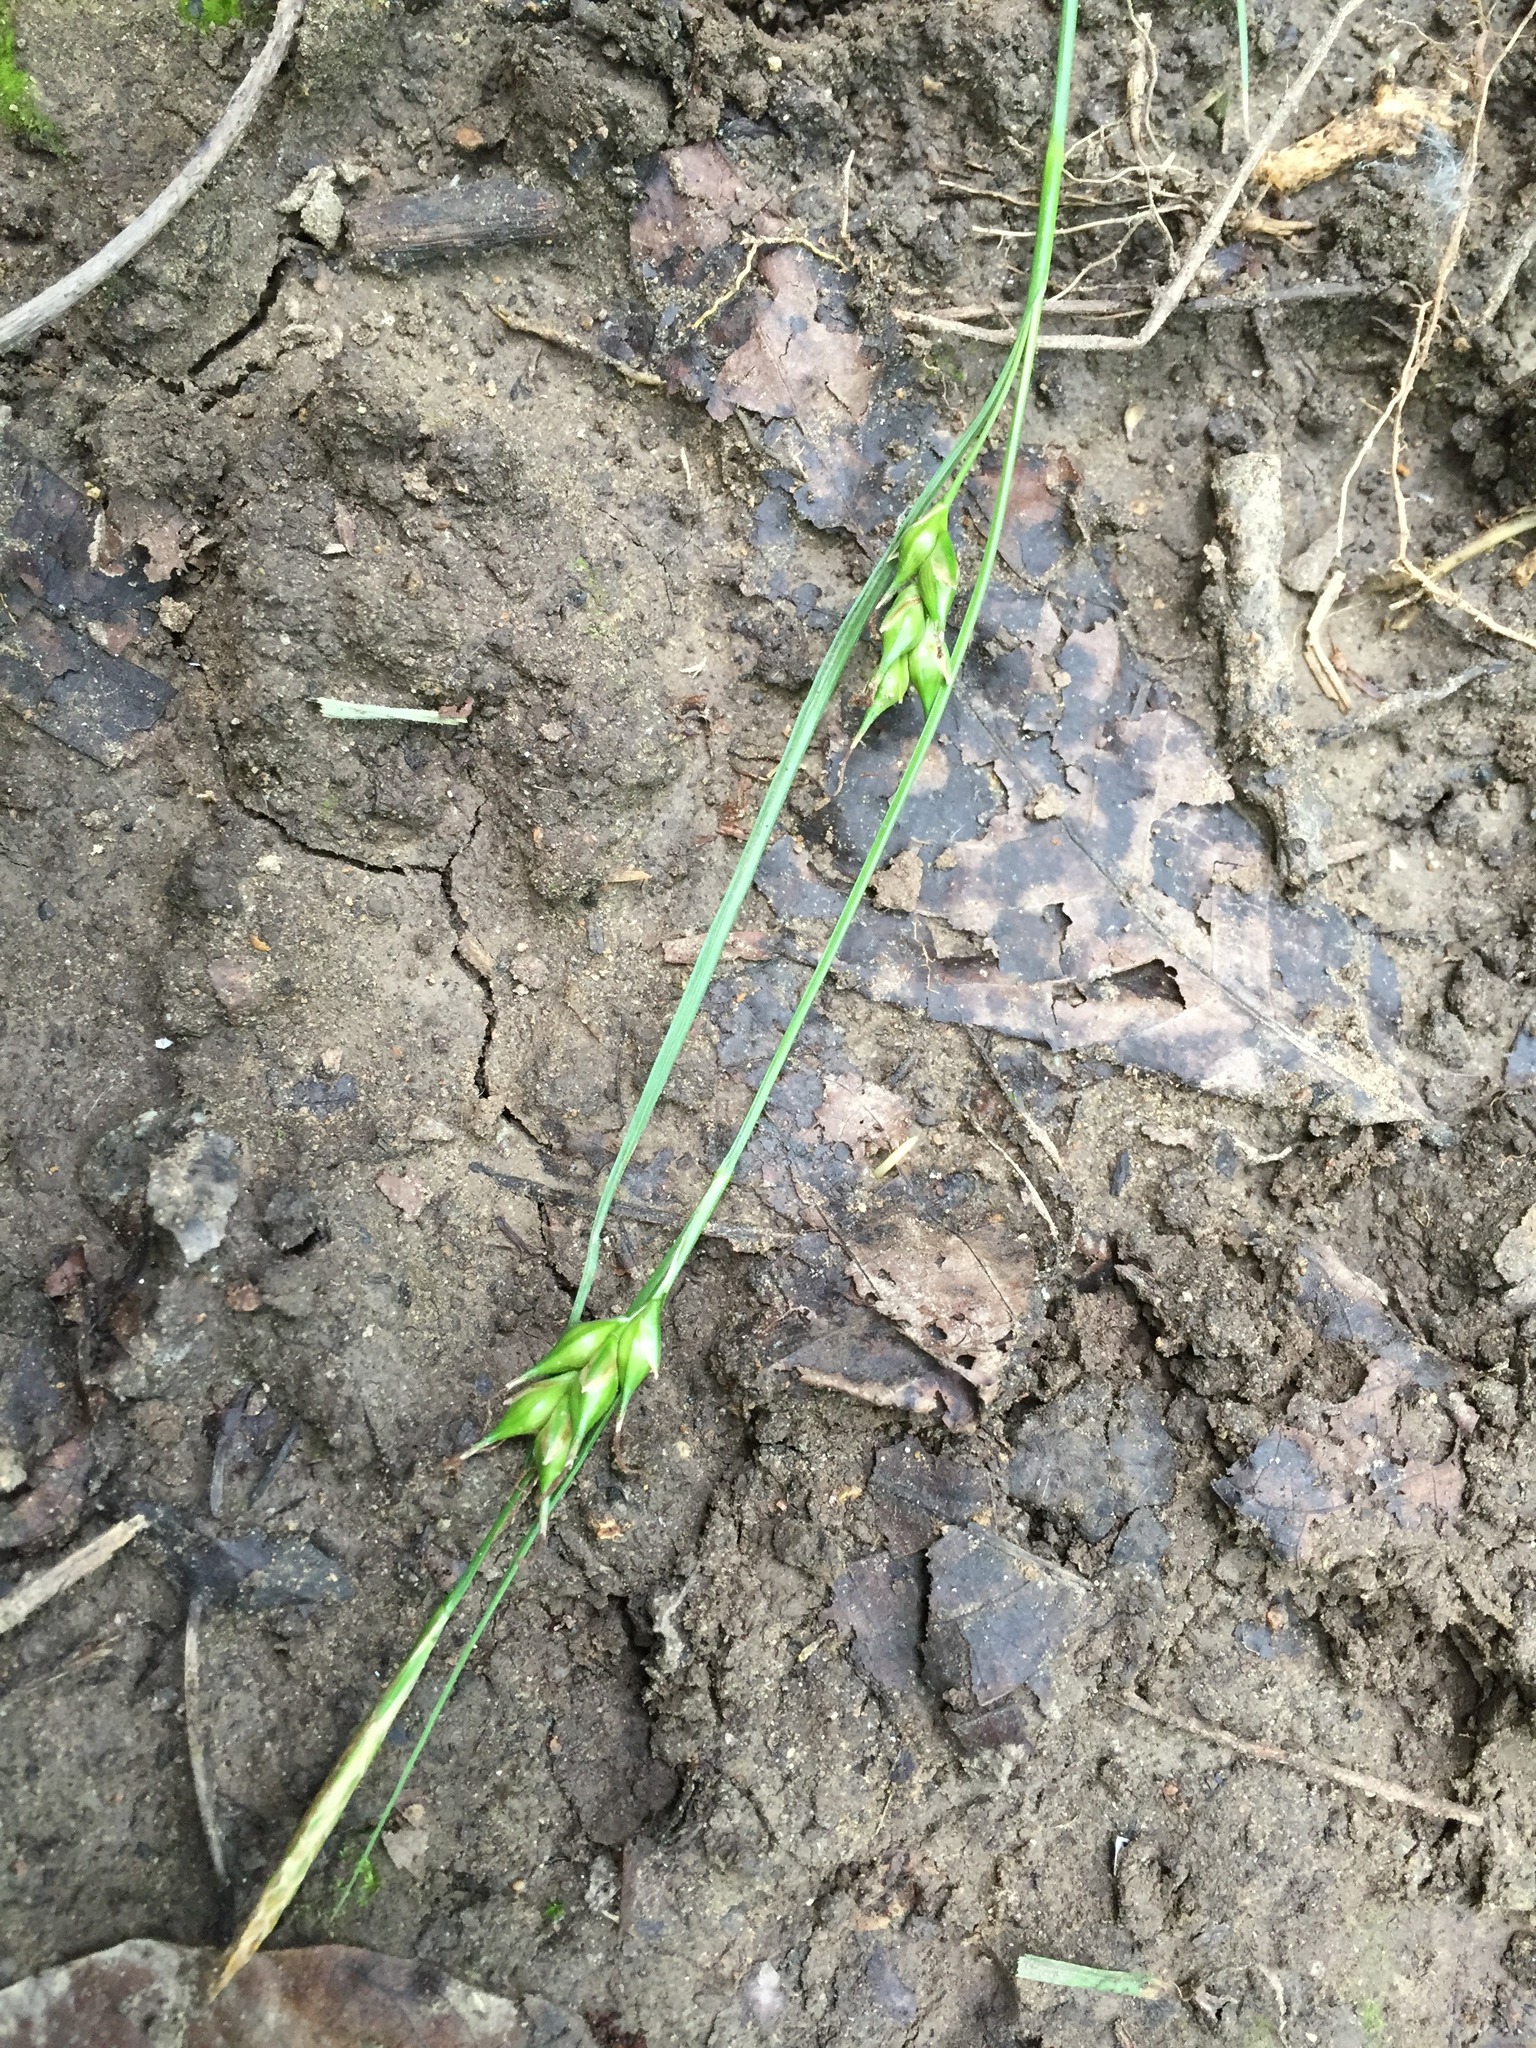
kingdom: Plantae
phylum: Tracheophyta
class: Liliopsida
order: Poales
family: Cyperaceae
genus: Carex
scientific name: Carex depauperata
